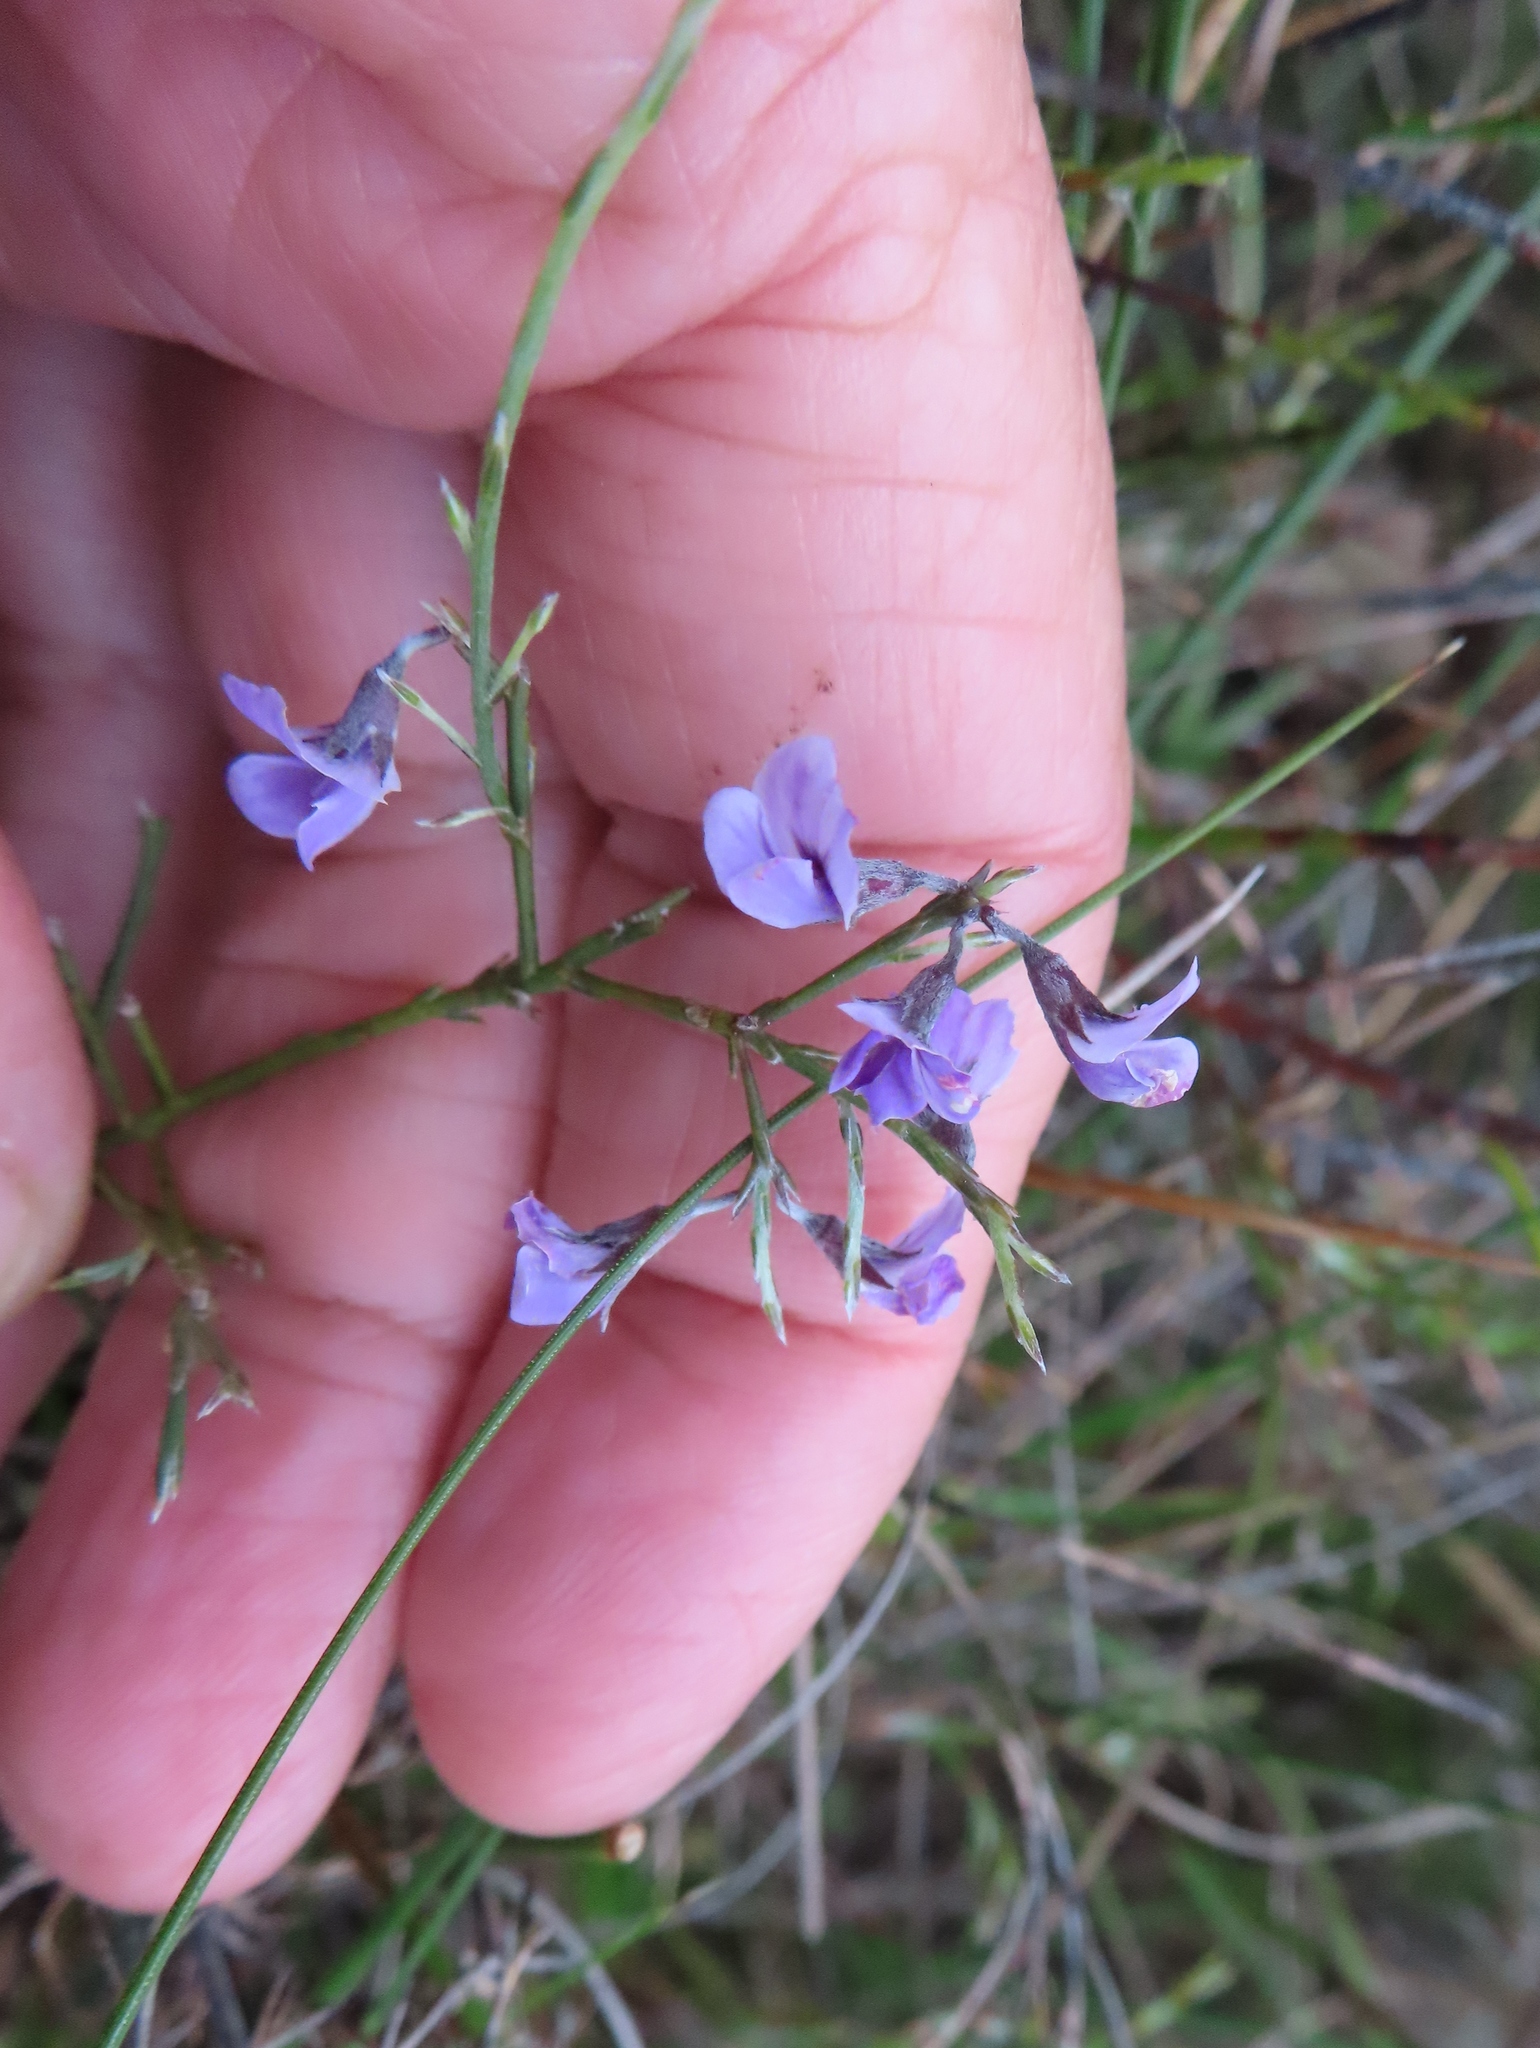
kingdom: Plantae
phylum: Tracheophyta
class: Magnoliopsida
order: Fabales
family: Fabaceae
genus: Amphithalea
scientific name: Amphithalea biovulata
